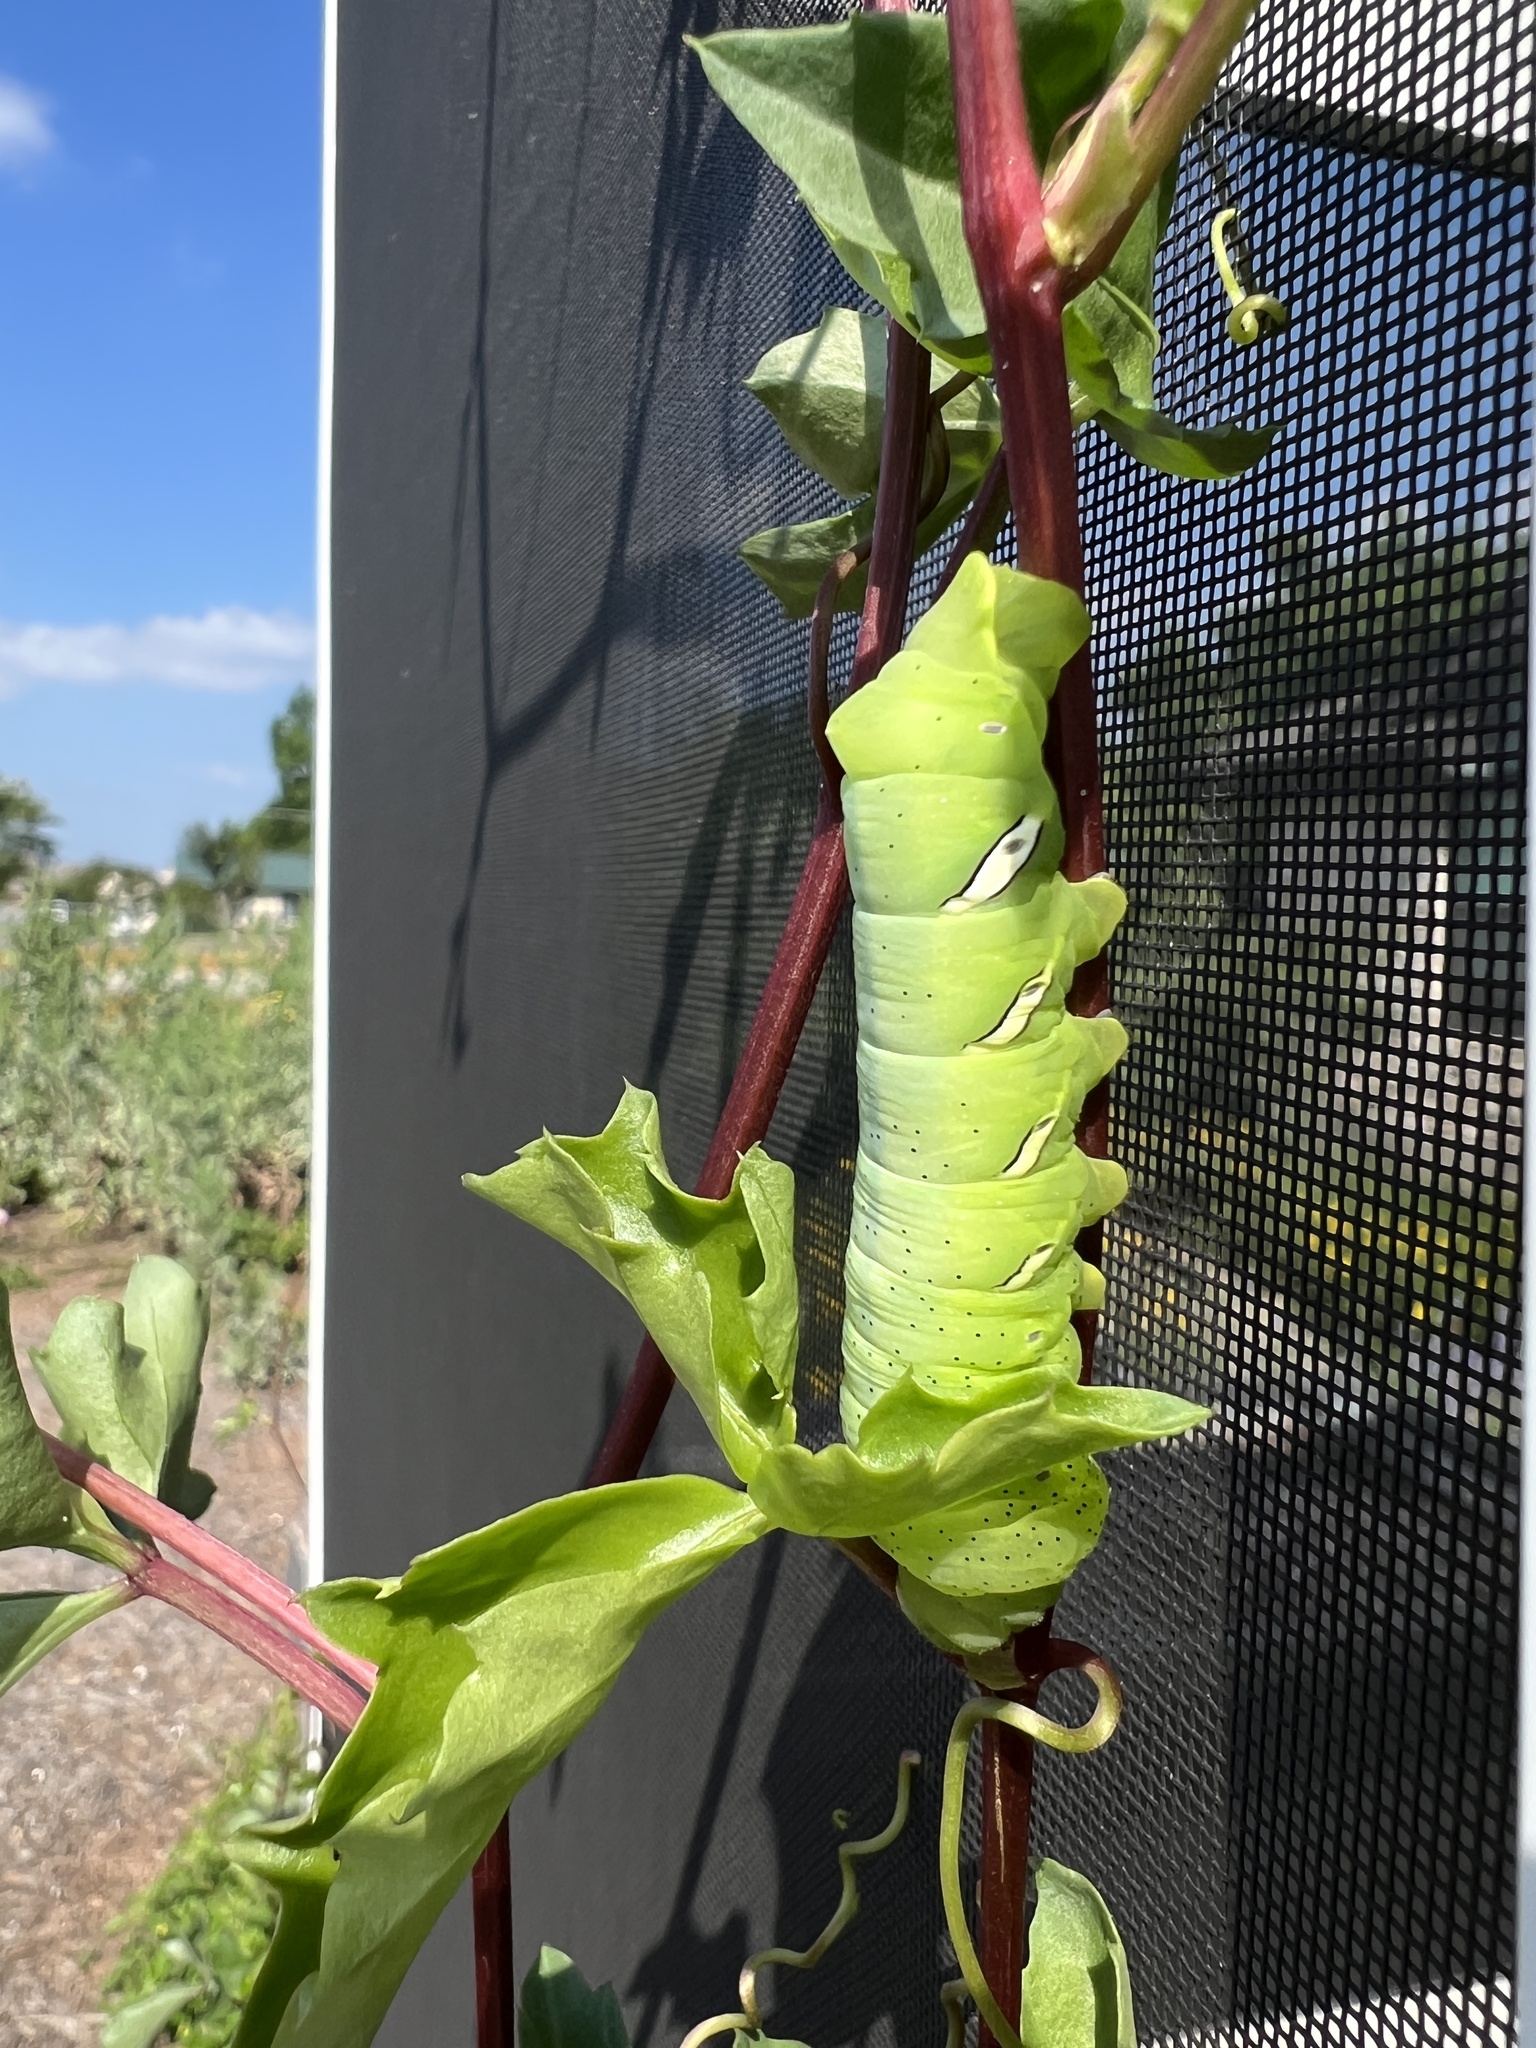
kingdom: Animalia
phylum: Arthropoda
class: Insecta
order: Lepidoptera
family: Sphingidae
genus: Eumorpha
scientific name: Eumorpha vitis
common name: Vine sphinx
